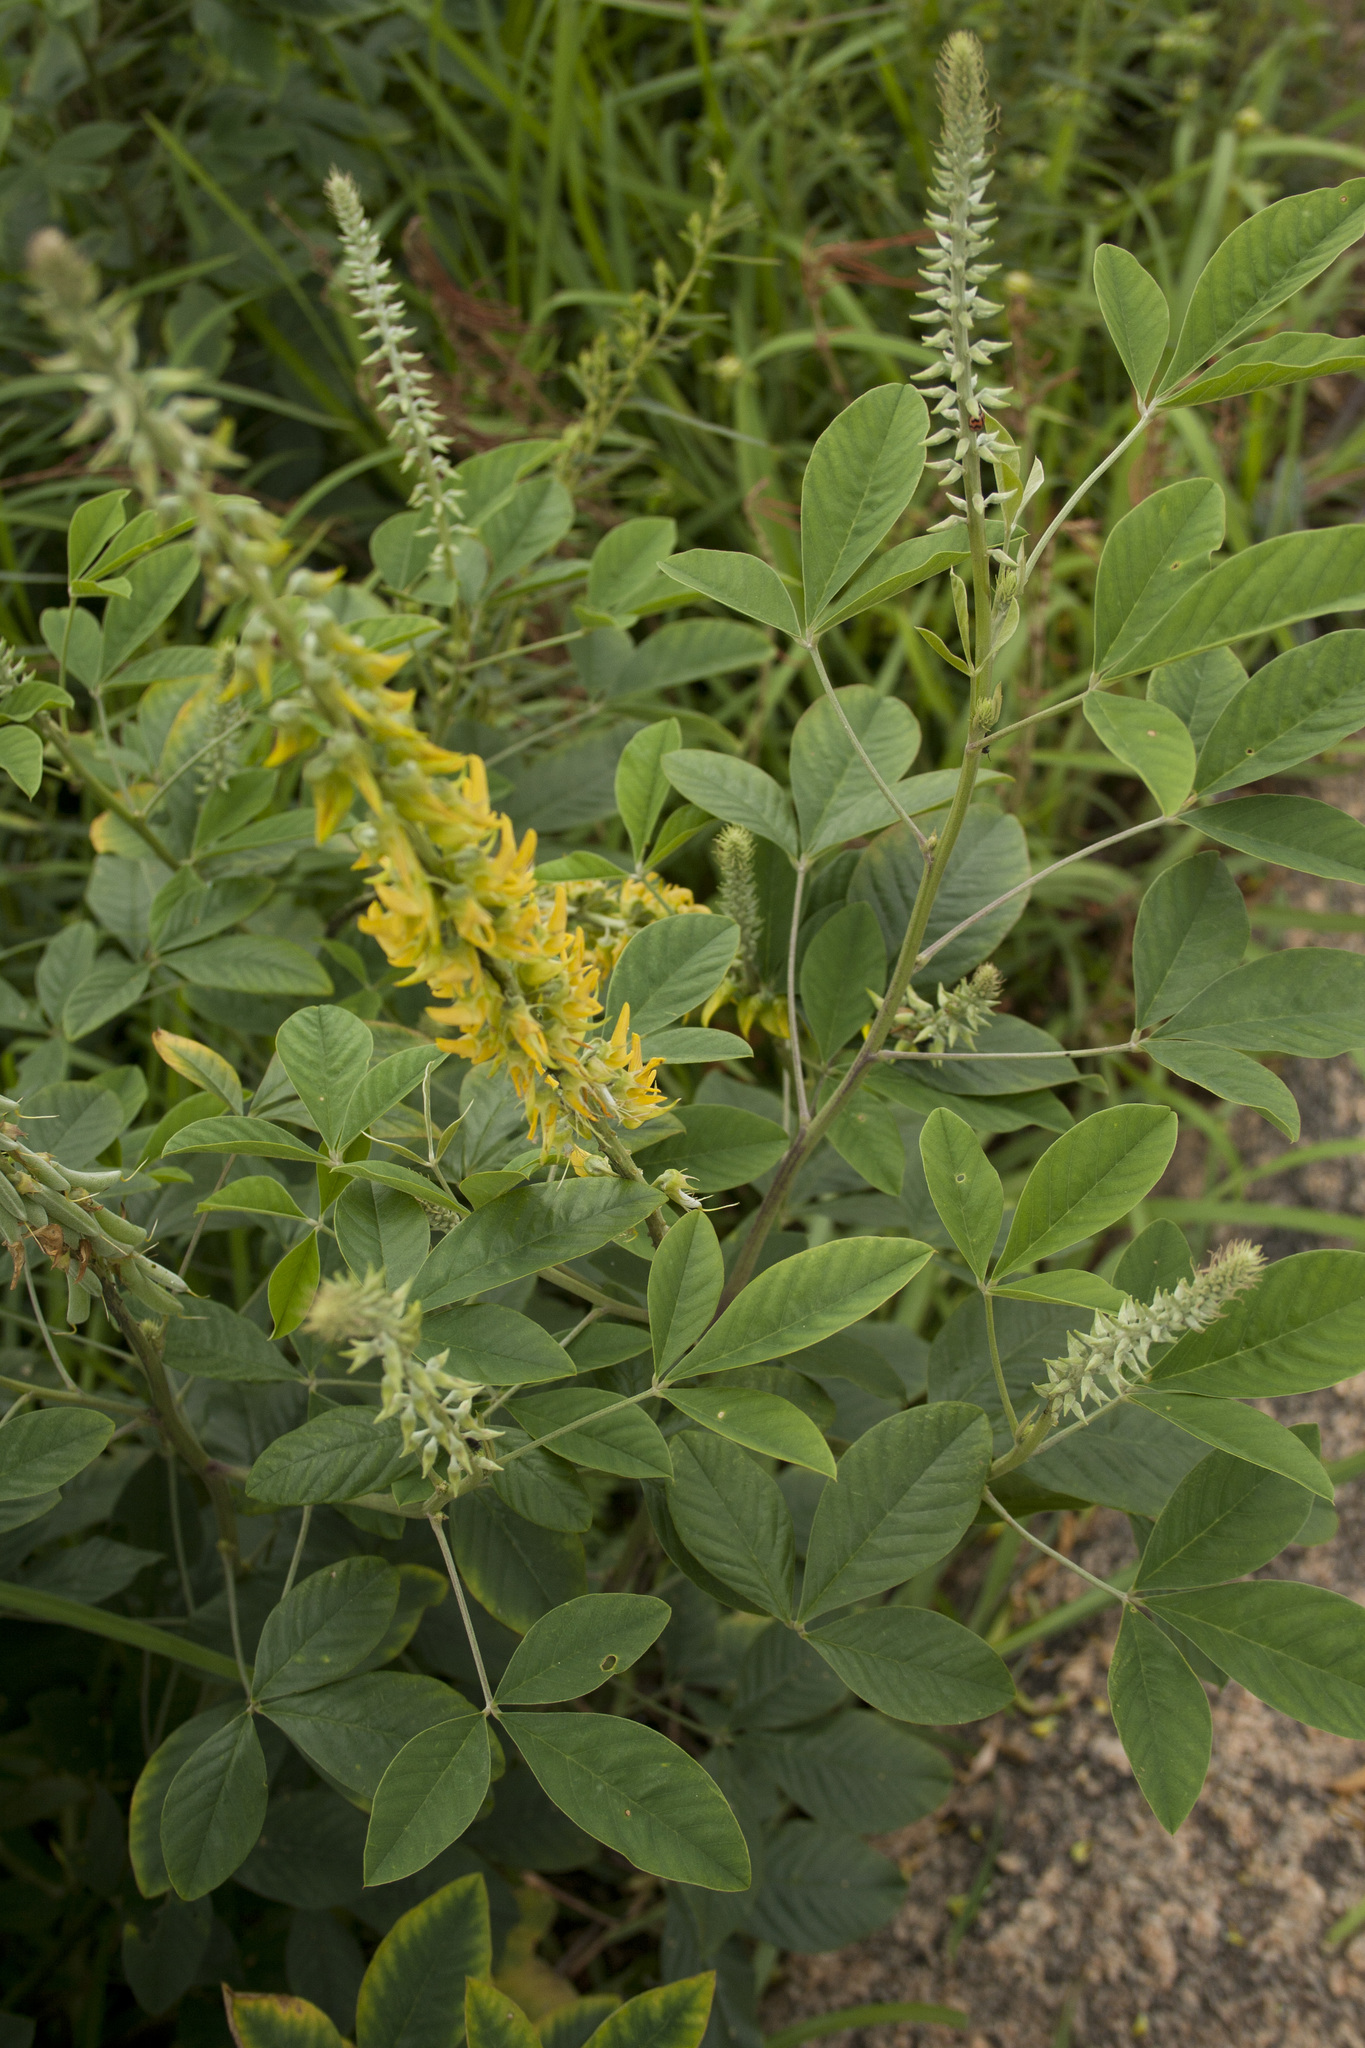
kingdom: Plantae
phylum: Tracheophyta
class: Magnoliopsida
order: Fabales
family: Fabaceae
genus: Crotalaria
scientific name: Crotalaria pallida
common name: Smooth rattlebox
